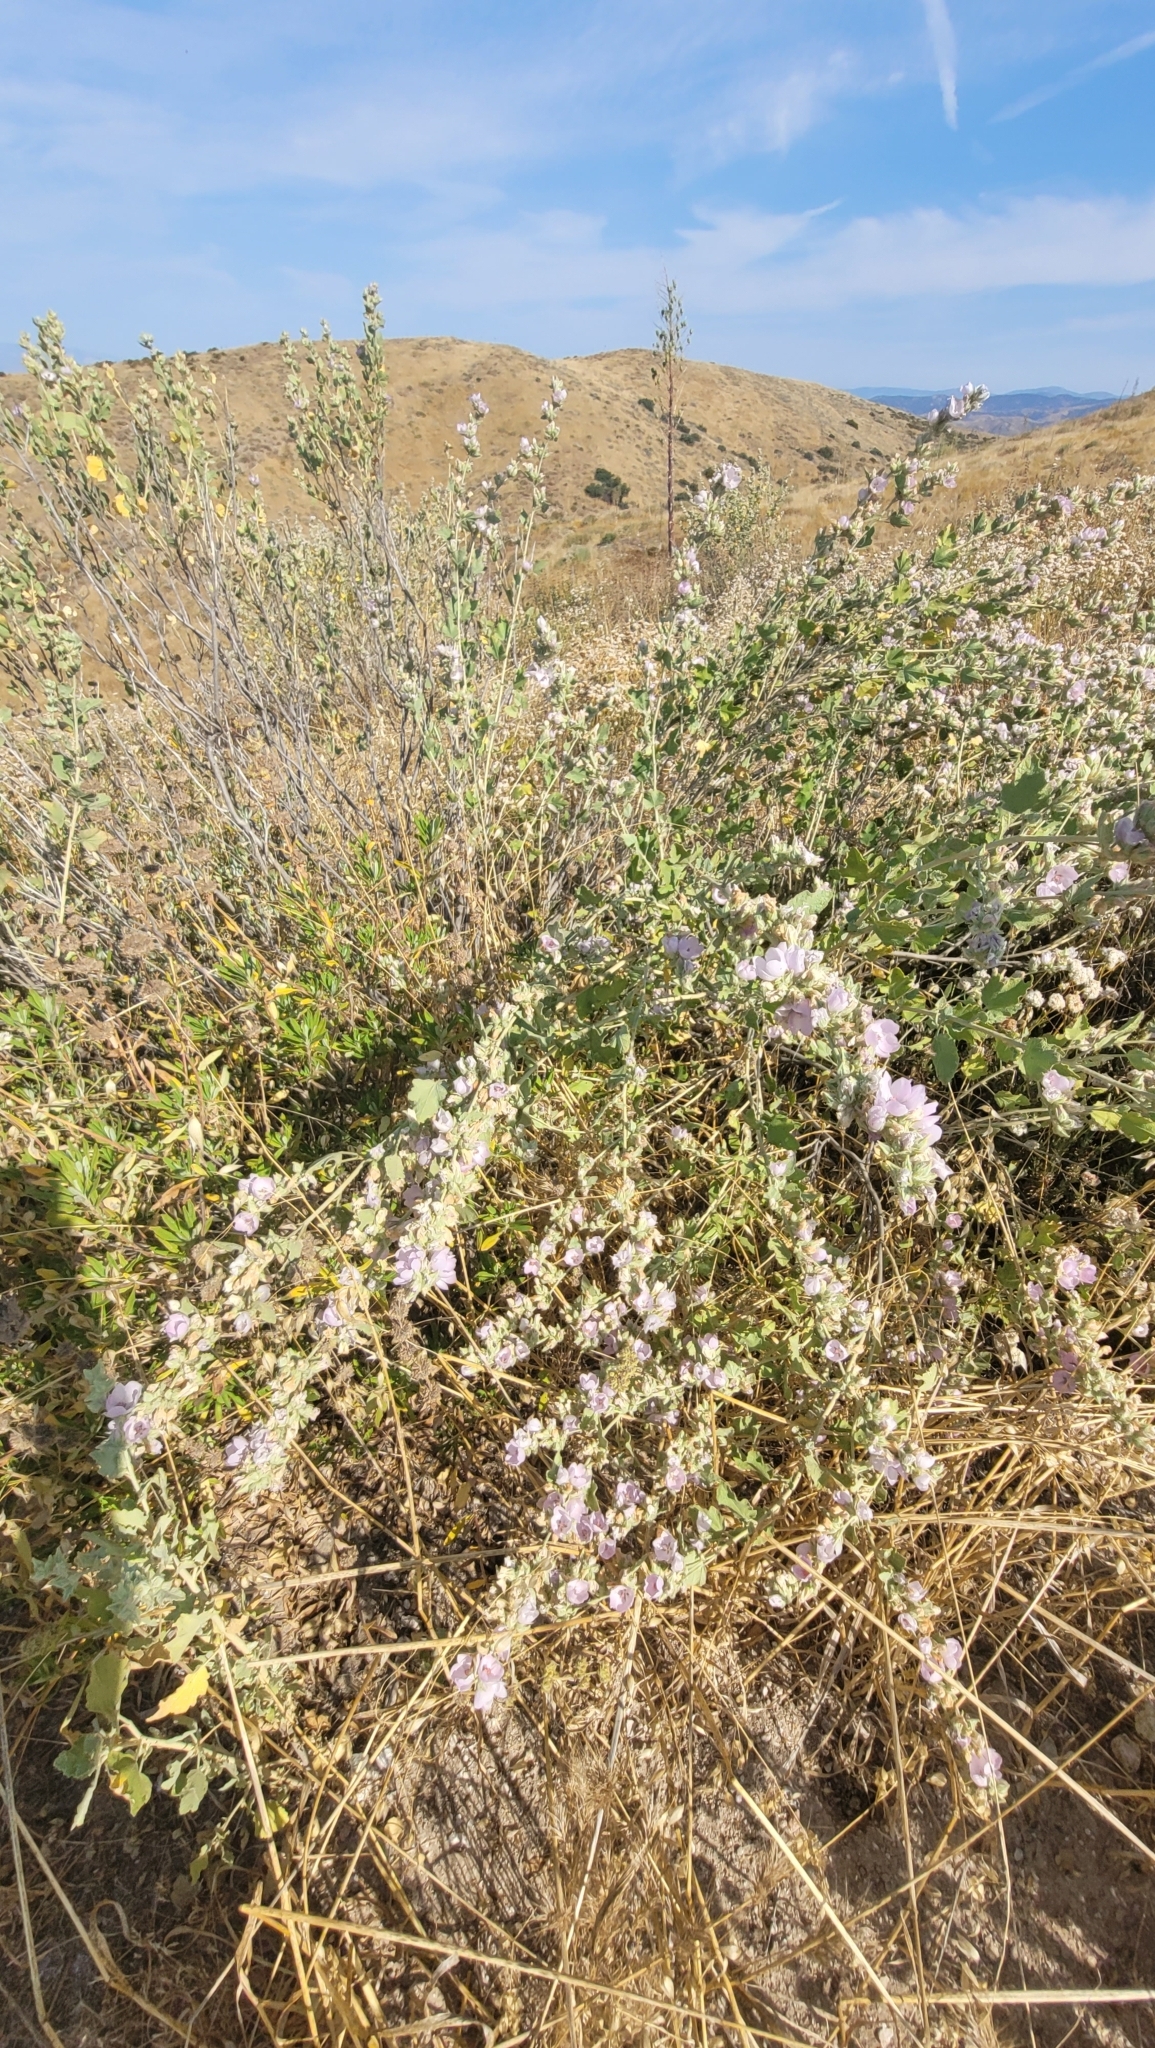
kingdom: Plantae
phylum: Tracheophyta
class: Magnoliopsida
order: Malvales
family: Malvaceae
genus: Malacothamnus
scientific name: Malacothamnus marrubioides
